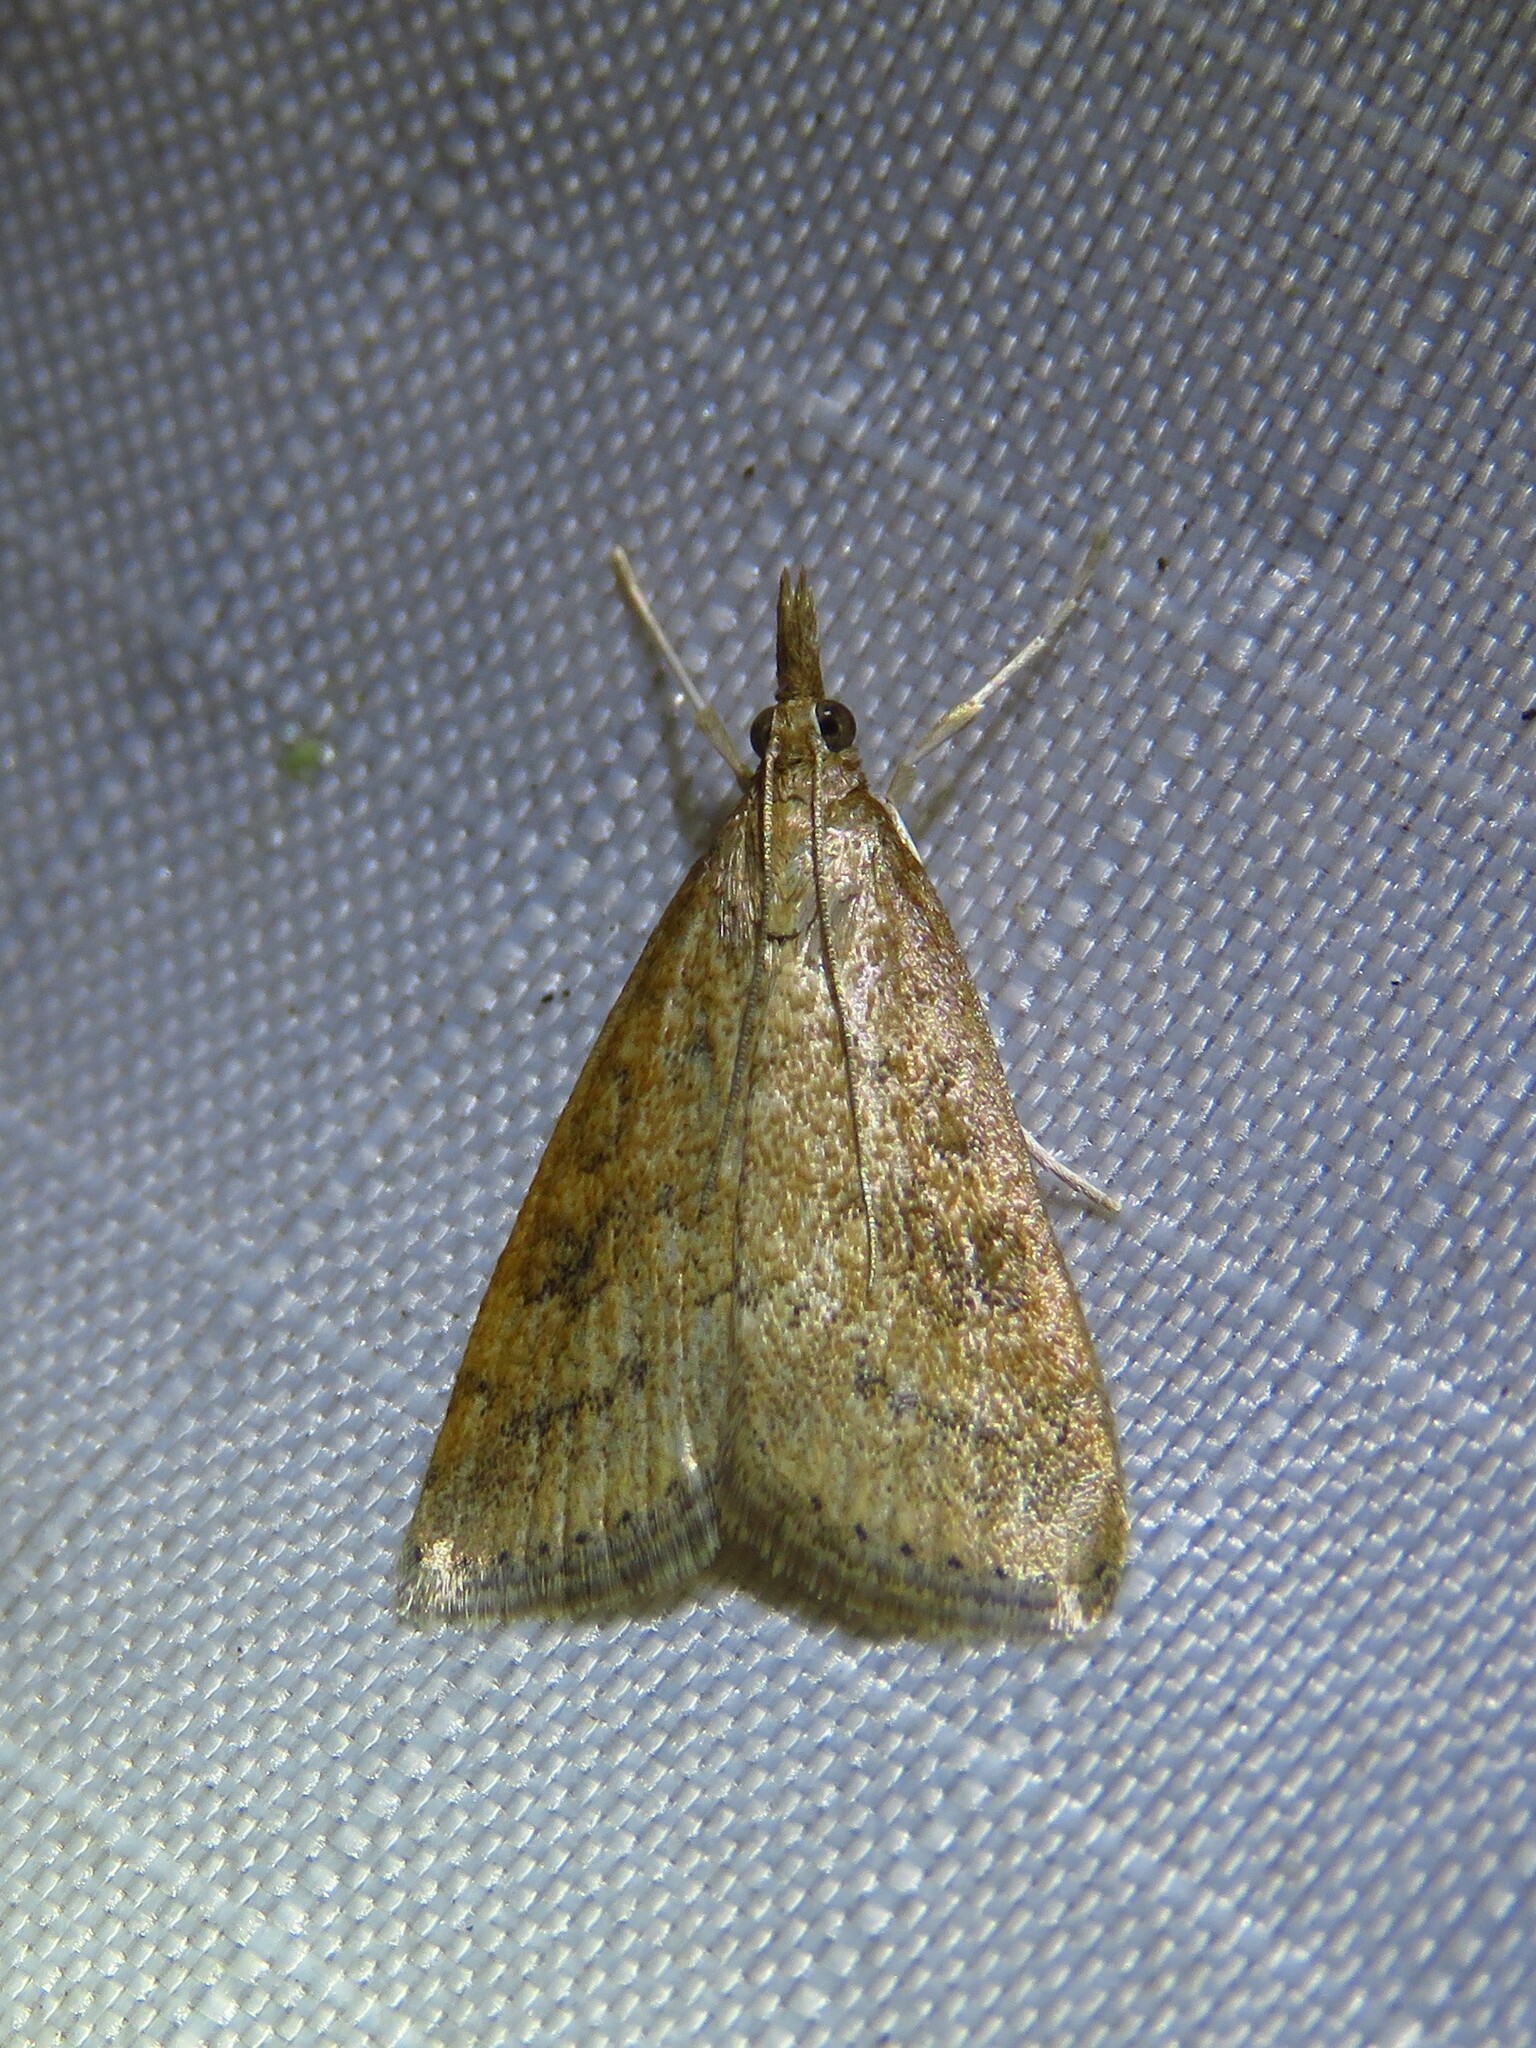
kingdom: Animalia
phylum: Arthropoda
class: Insecta
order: Lepidoptera
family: Crambidae
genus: Udea
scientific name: Udea rubigalis
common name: Celery leaftier moth
